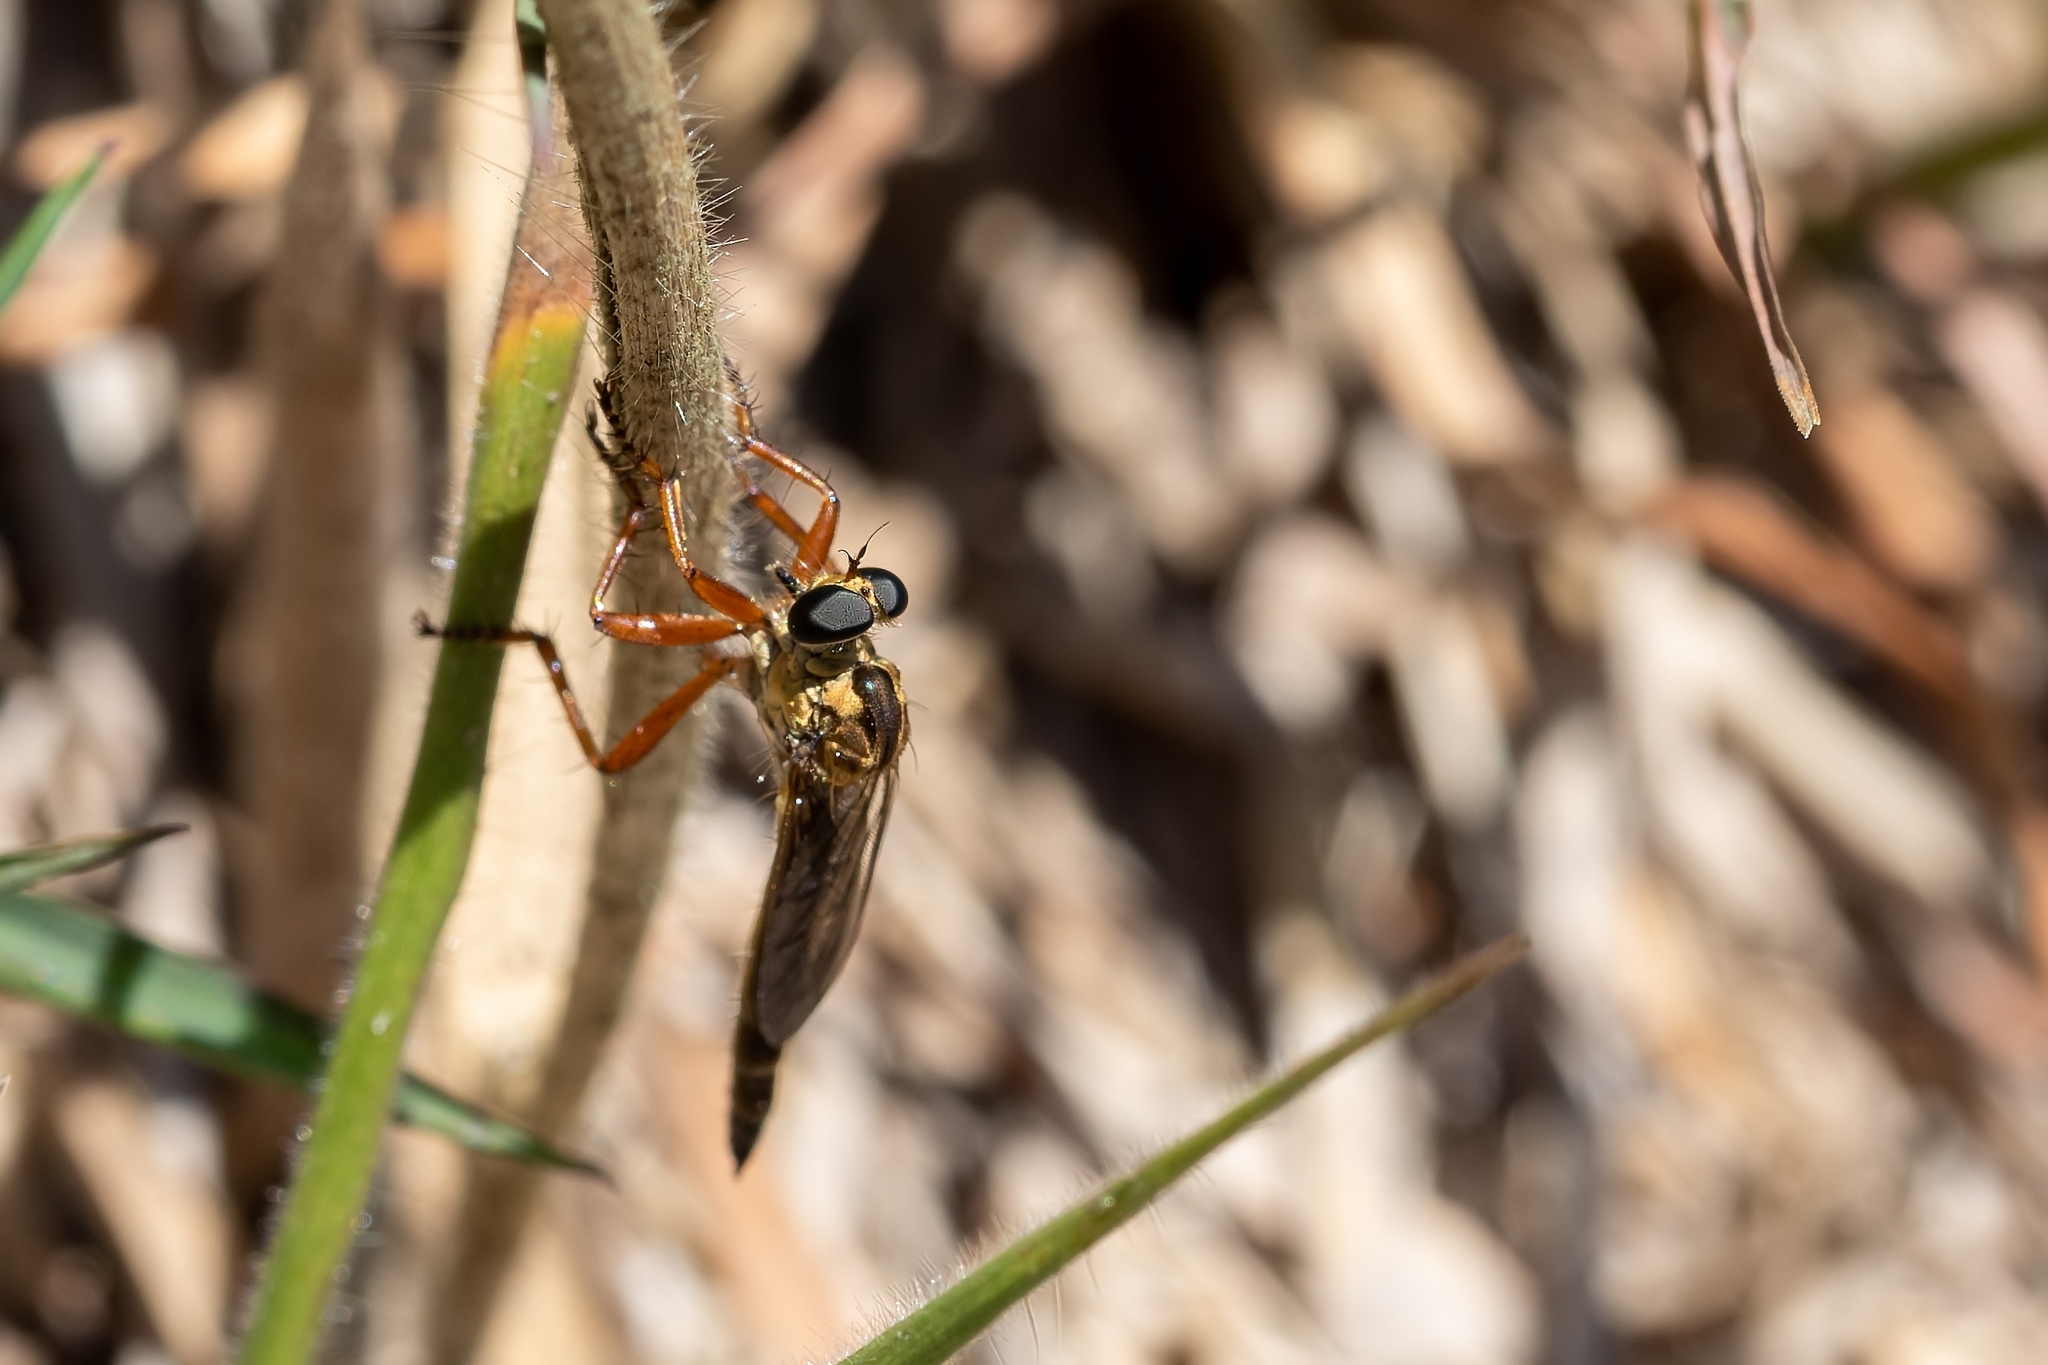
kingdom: Animalia
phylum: Arthropoda
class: Insecta
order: Diptera
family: Asilidae
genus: Polacantha
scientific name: Polacantha gracilis
